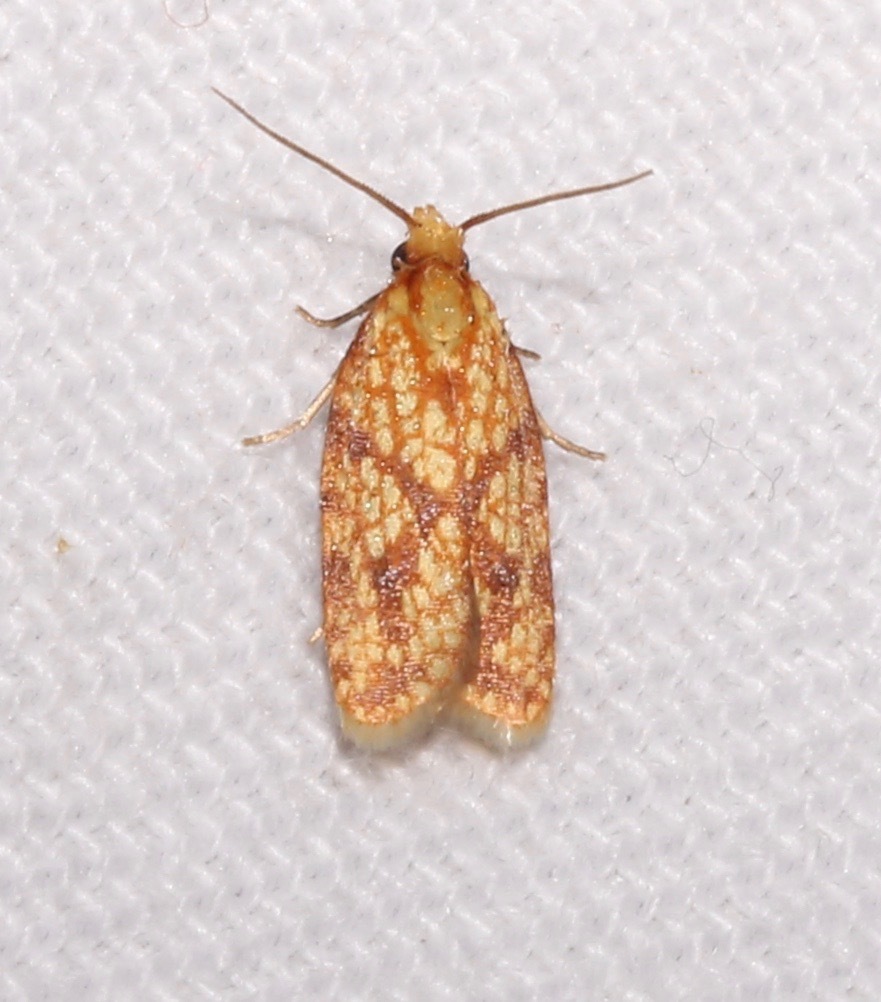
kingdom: Animalia
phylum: Arthropoda
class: Insecta
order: Lepidoptera
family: Tortricidae
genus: Sparganothis
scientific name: Sparganothis sulfureana
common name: Sparganothis fruitworm moth
